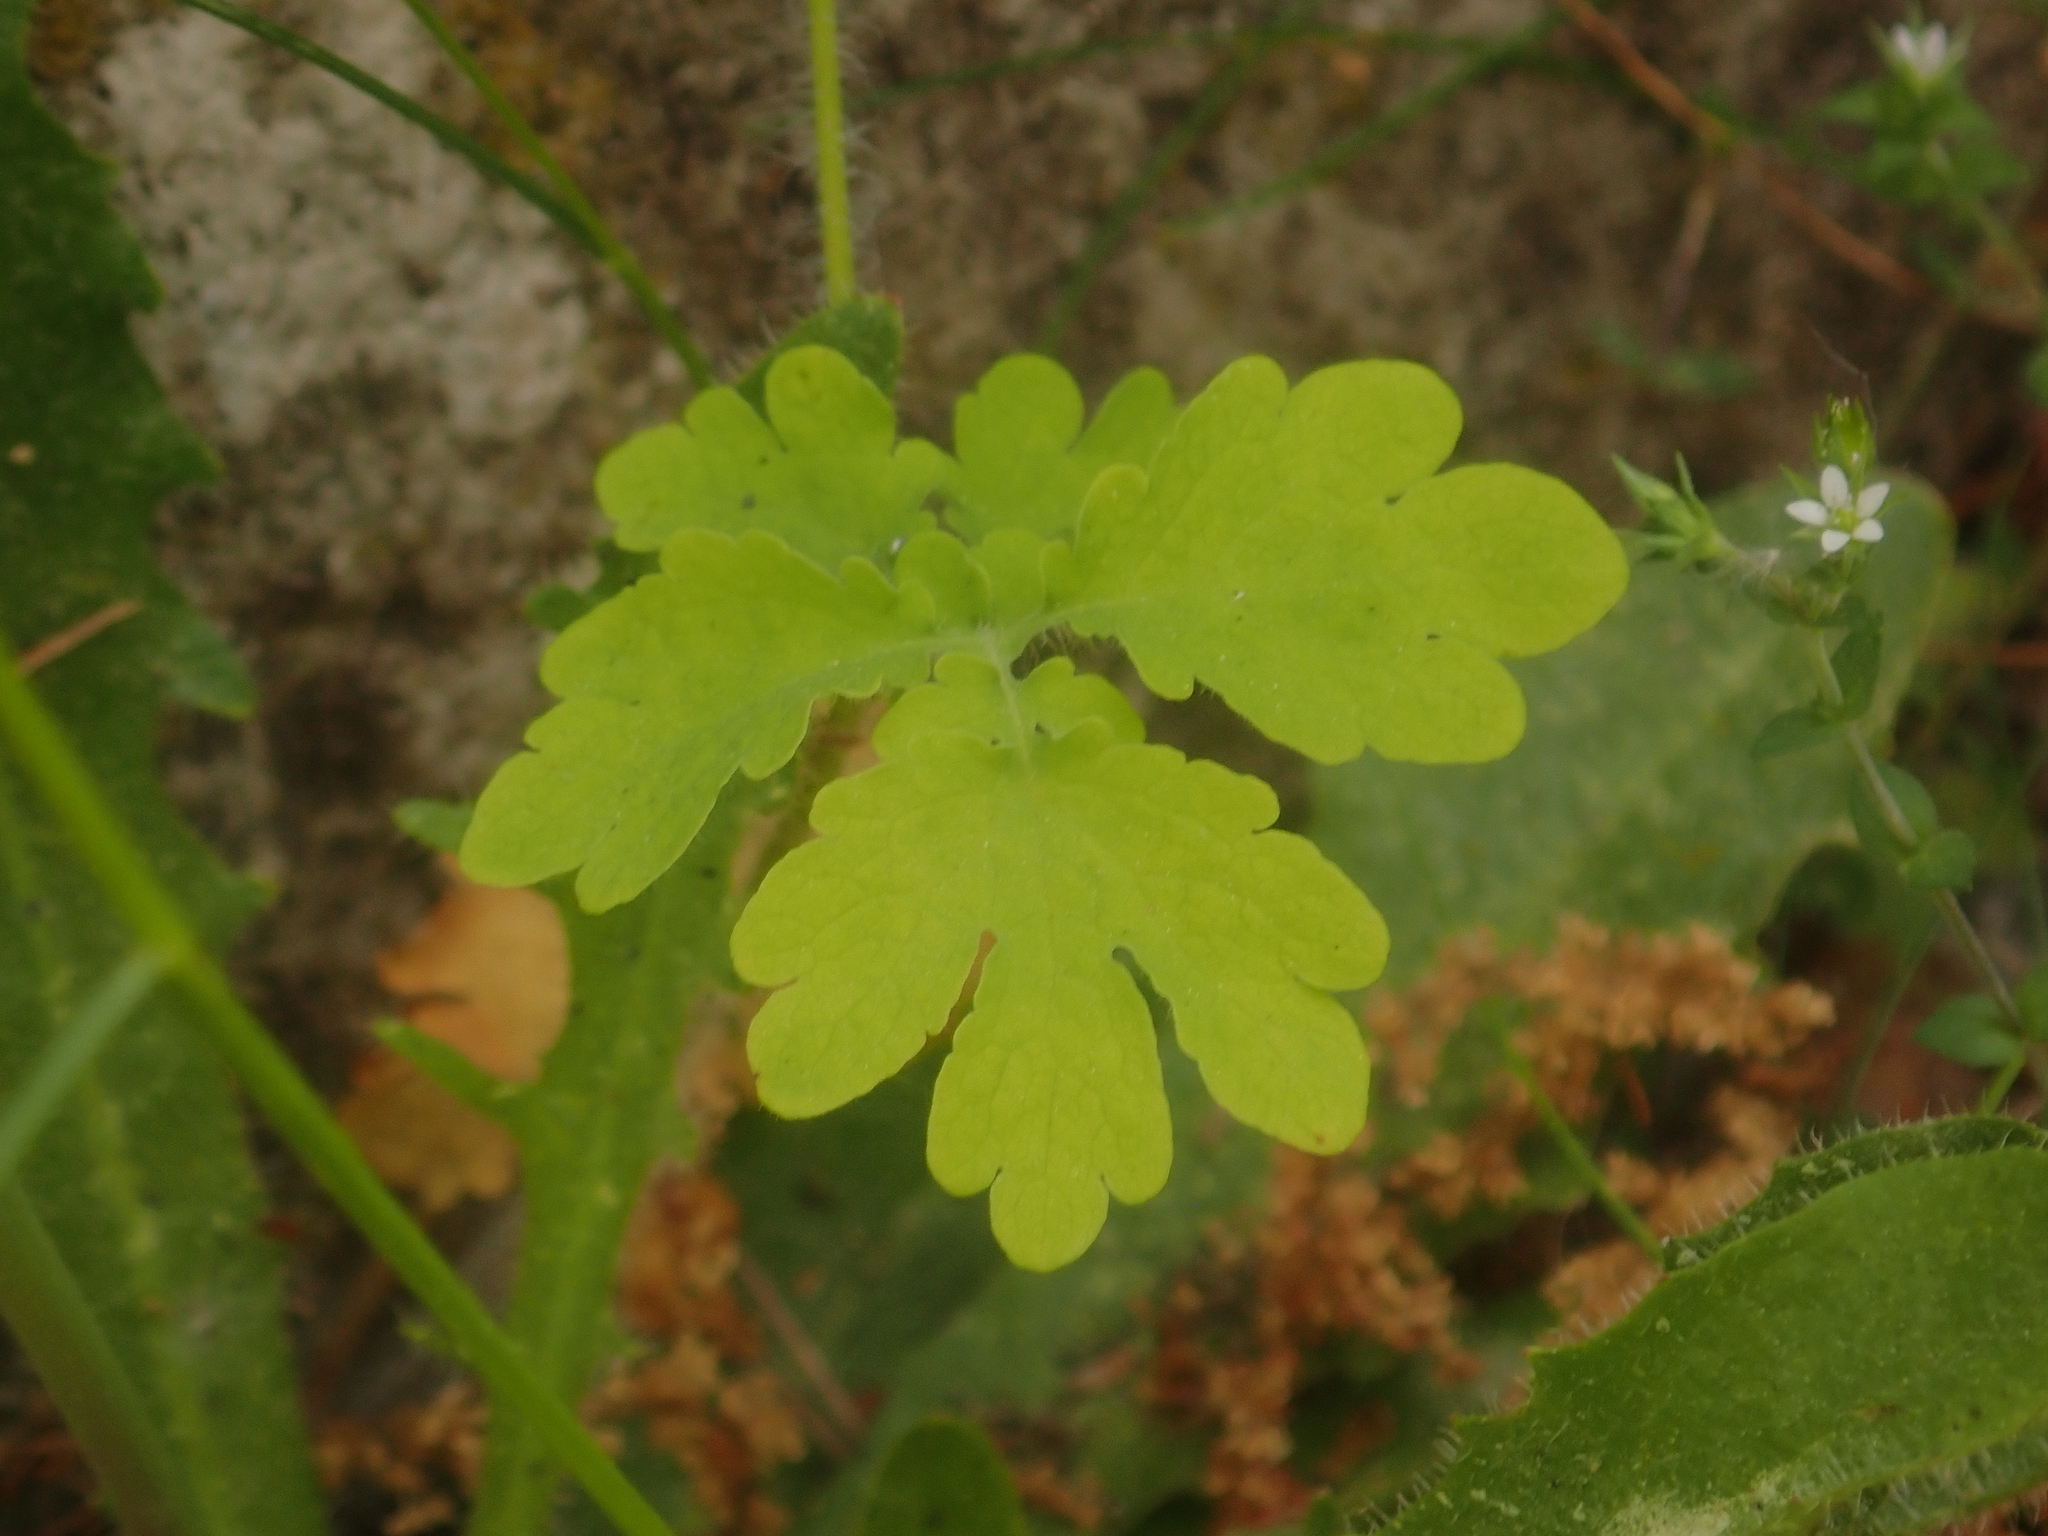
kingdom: Plantae
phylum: Tracheophyta
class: Magnoliopsida
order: Ranunculales
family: Papaveraceae
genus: Chelidonium
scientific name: Chelidonium majus
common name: Greater celandine
